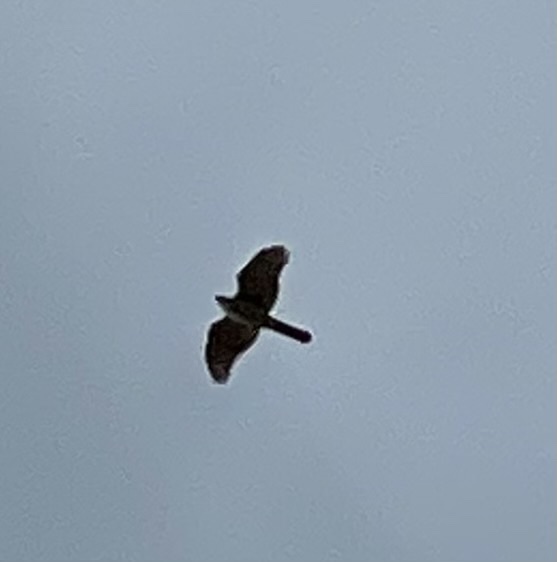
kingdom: Animalia
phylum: Chordata
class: Aves
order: Accipitriformes
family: Accipitridae
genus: Accipiter
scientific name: Accipiter cooperii
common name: Cooper's hawk
